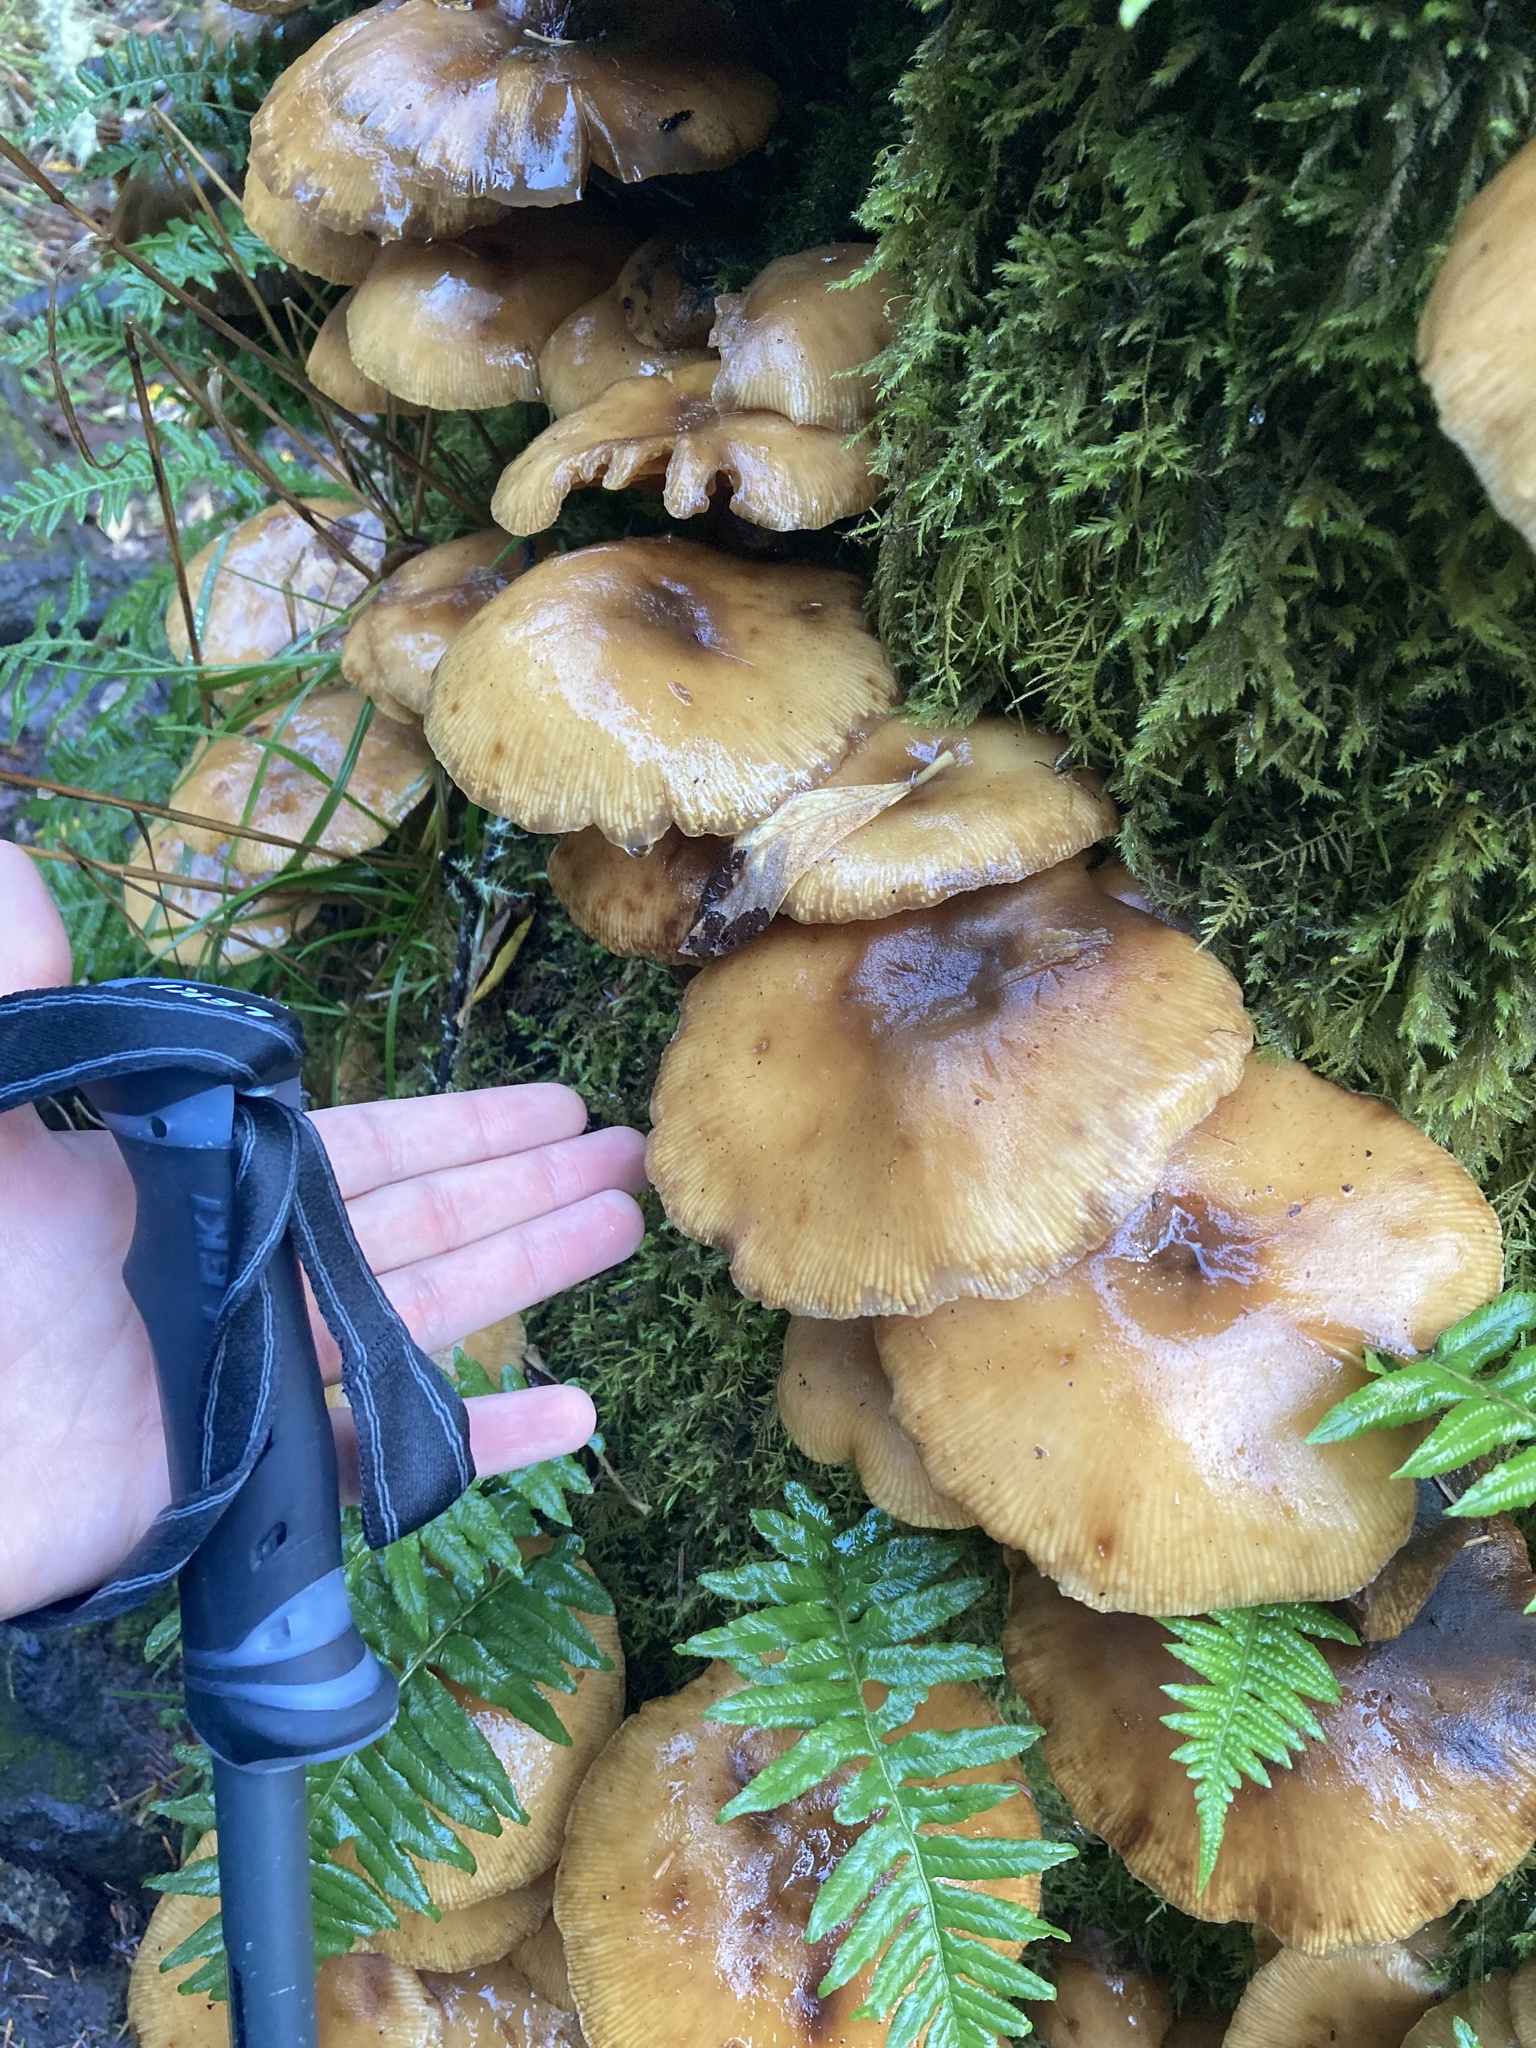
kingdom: Fungi
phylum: Basidiomycota
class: Agaricomycetes
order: Agaricales
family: Physalacriaceae
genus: Armillaria
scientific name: Armillaria nabsnona
